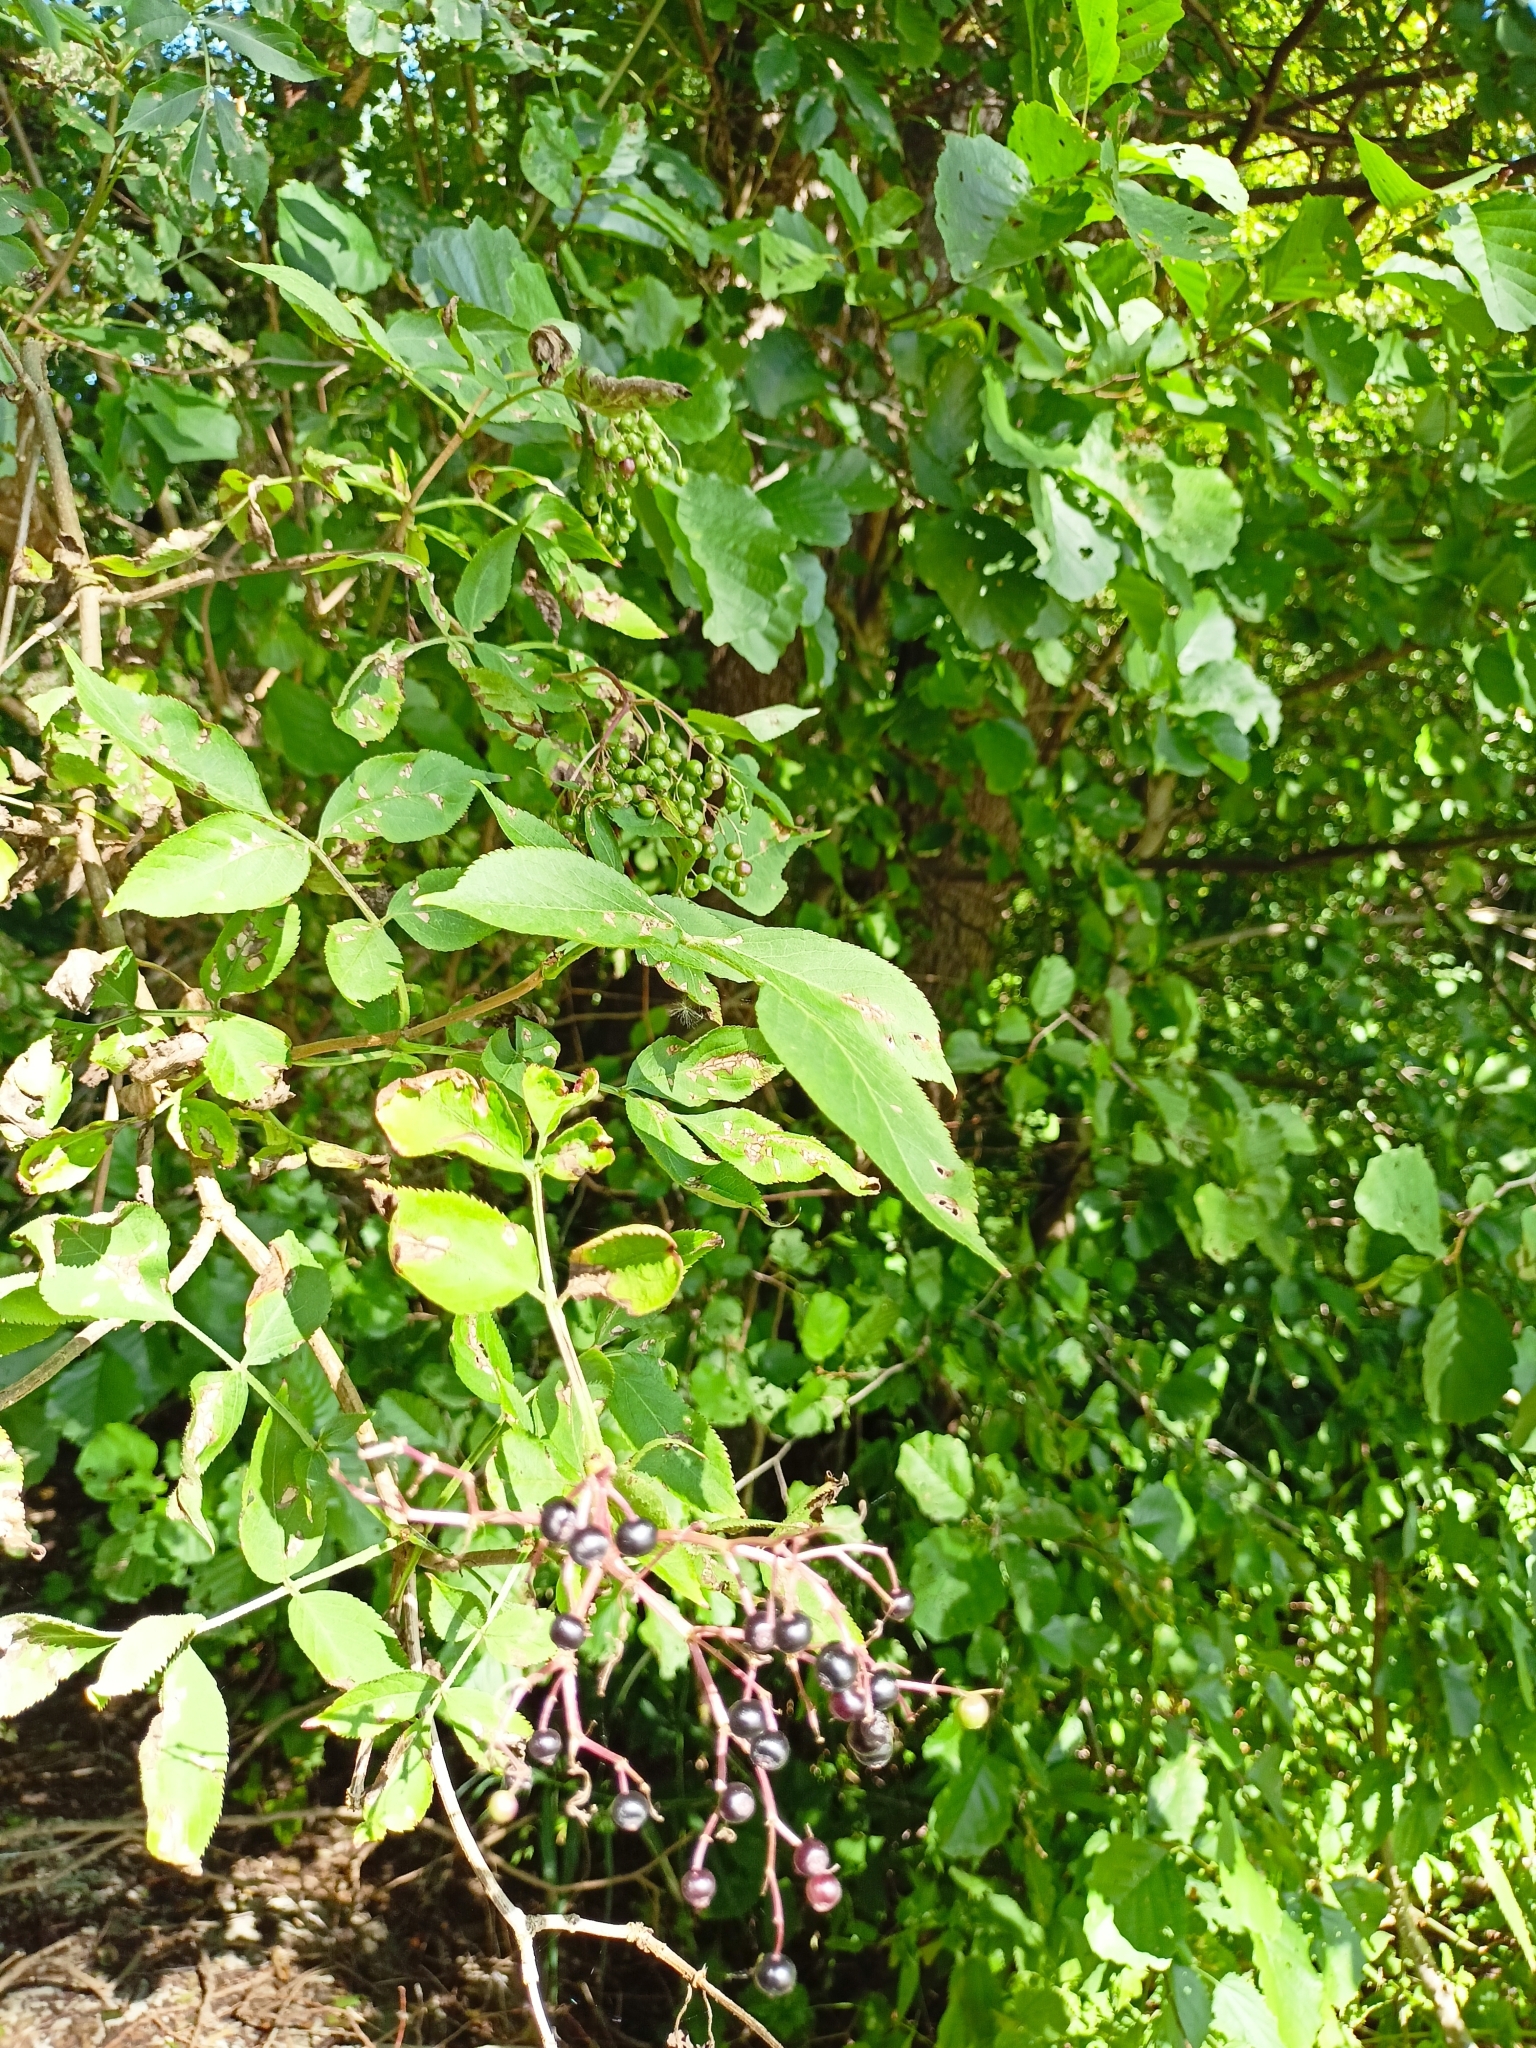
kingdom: Plantae
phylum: Tracheophyta
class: Magnoliopsida
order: Dipsacales
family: Viburnaceae
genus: Sambucus
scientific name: Sambucus nigra
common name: Elder
